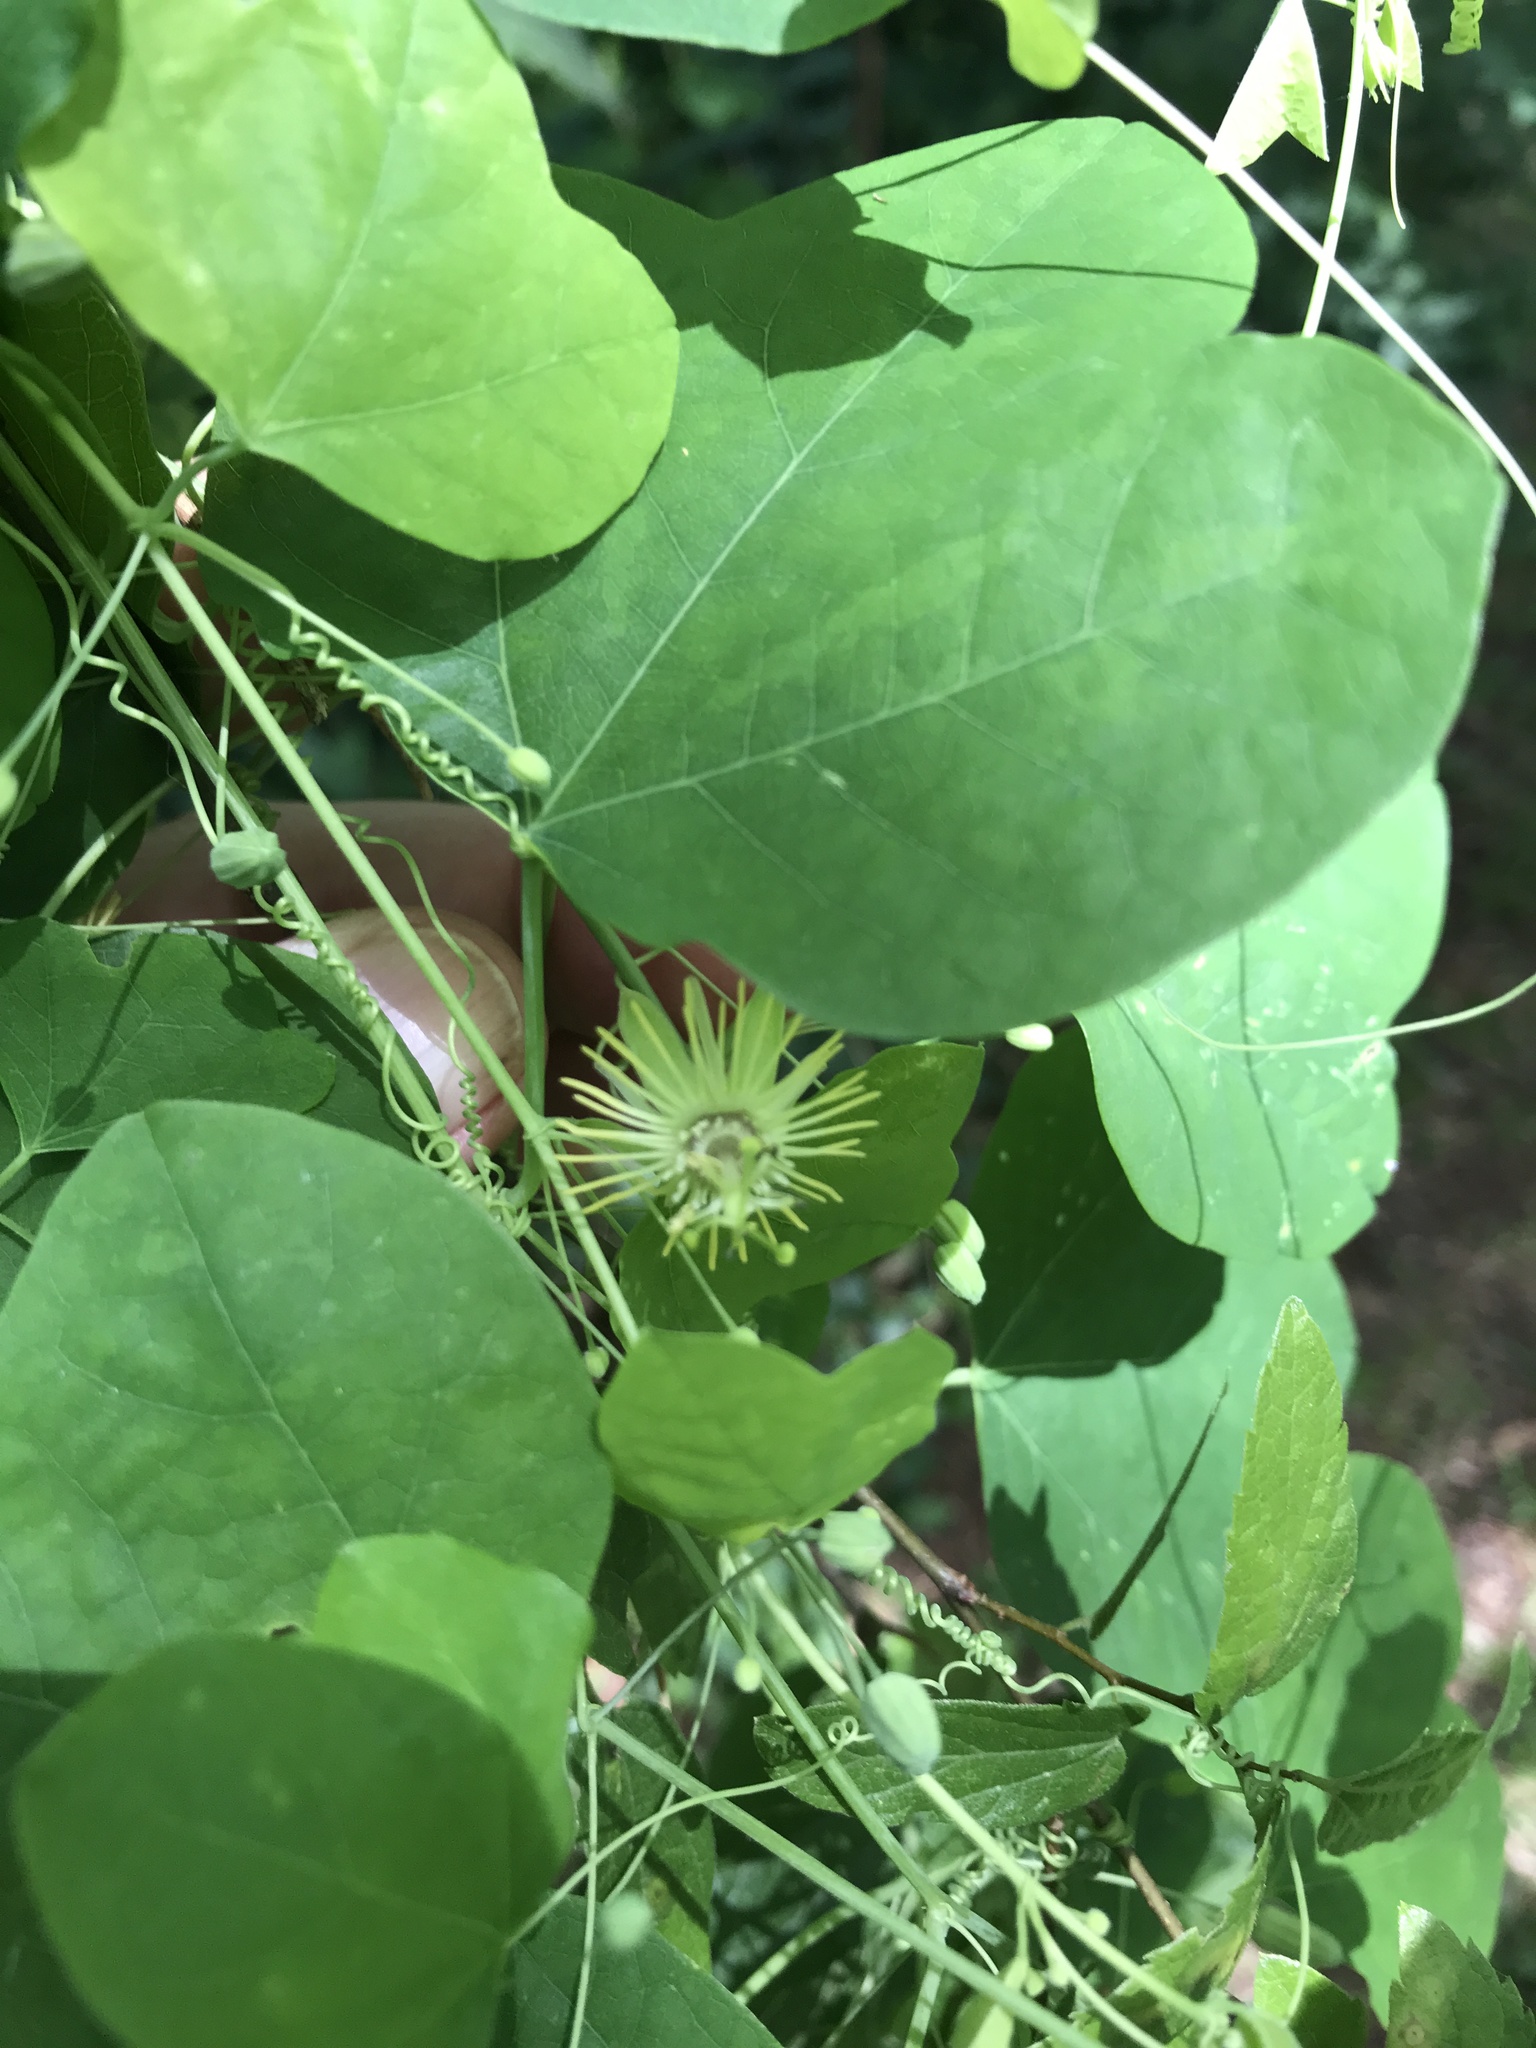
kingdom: Plantae
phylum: Tracheophyta
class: Magnoliopsida
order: Malpighiales
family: Passifloraceae
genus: Passiflora
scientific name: Passiflora lutea
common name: Yellow passionflower
